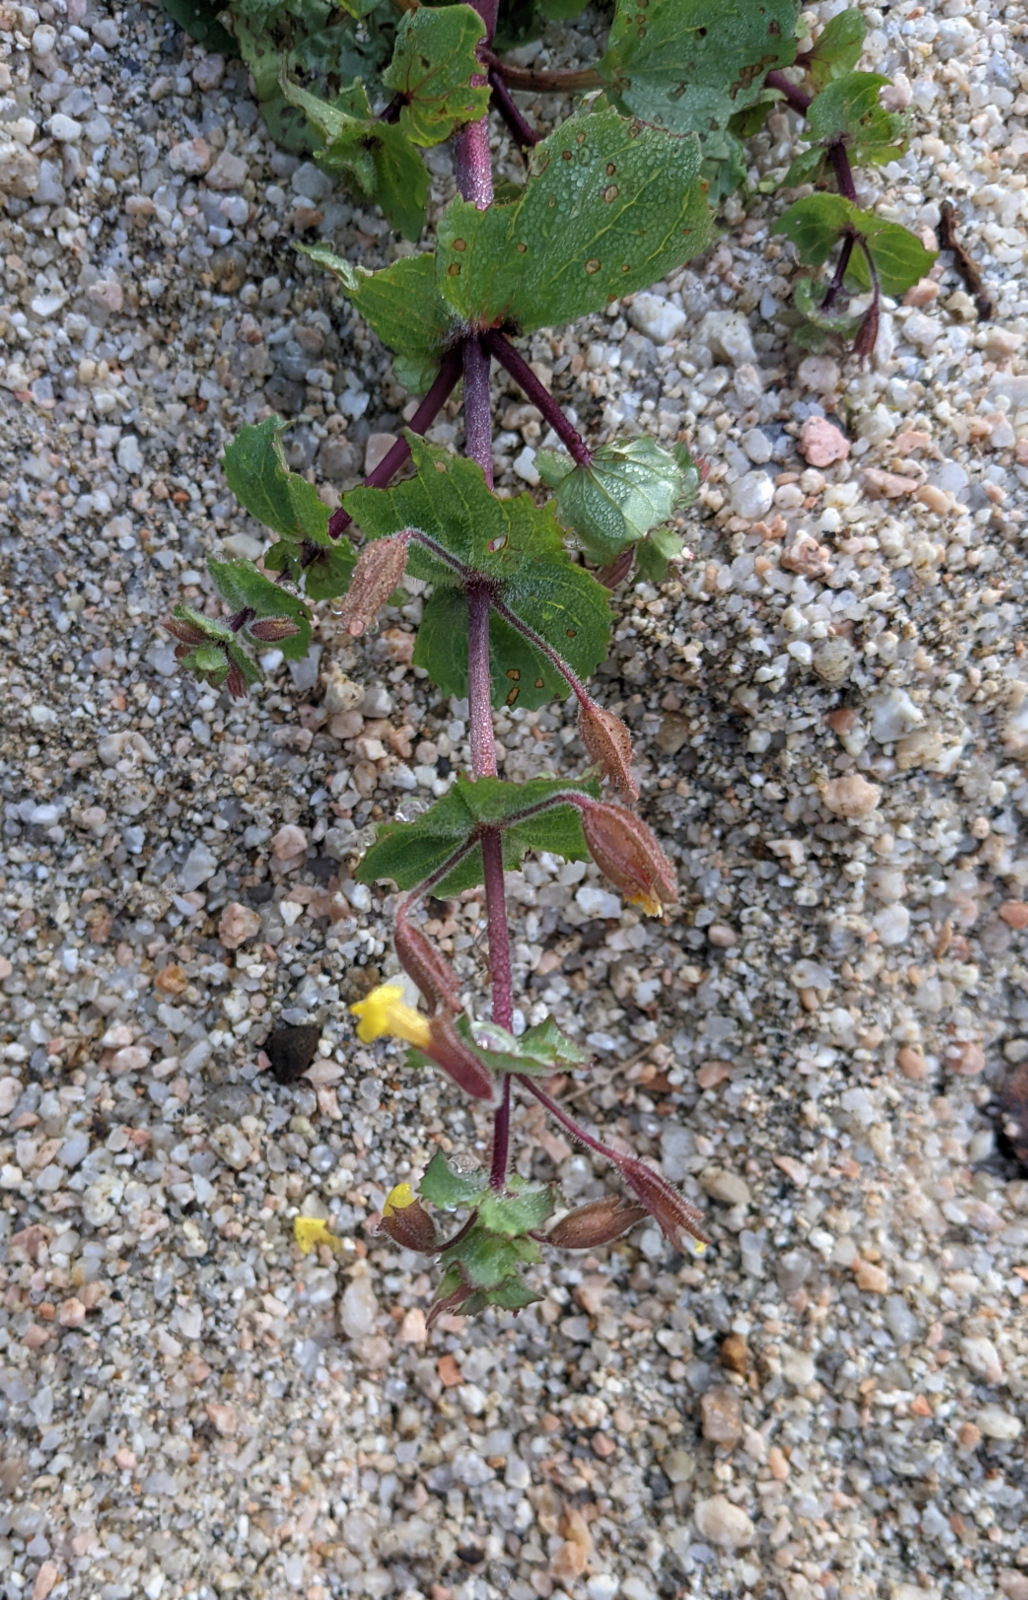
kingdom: Plantae
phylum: Tracheophyta
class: Magnoliopsida
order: Lamiales
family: Phrymaceae
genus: Erythranthe
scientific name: Erythranthe lagunensis
